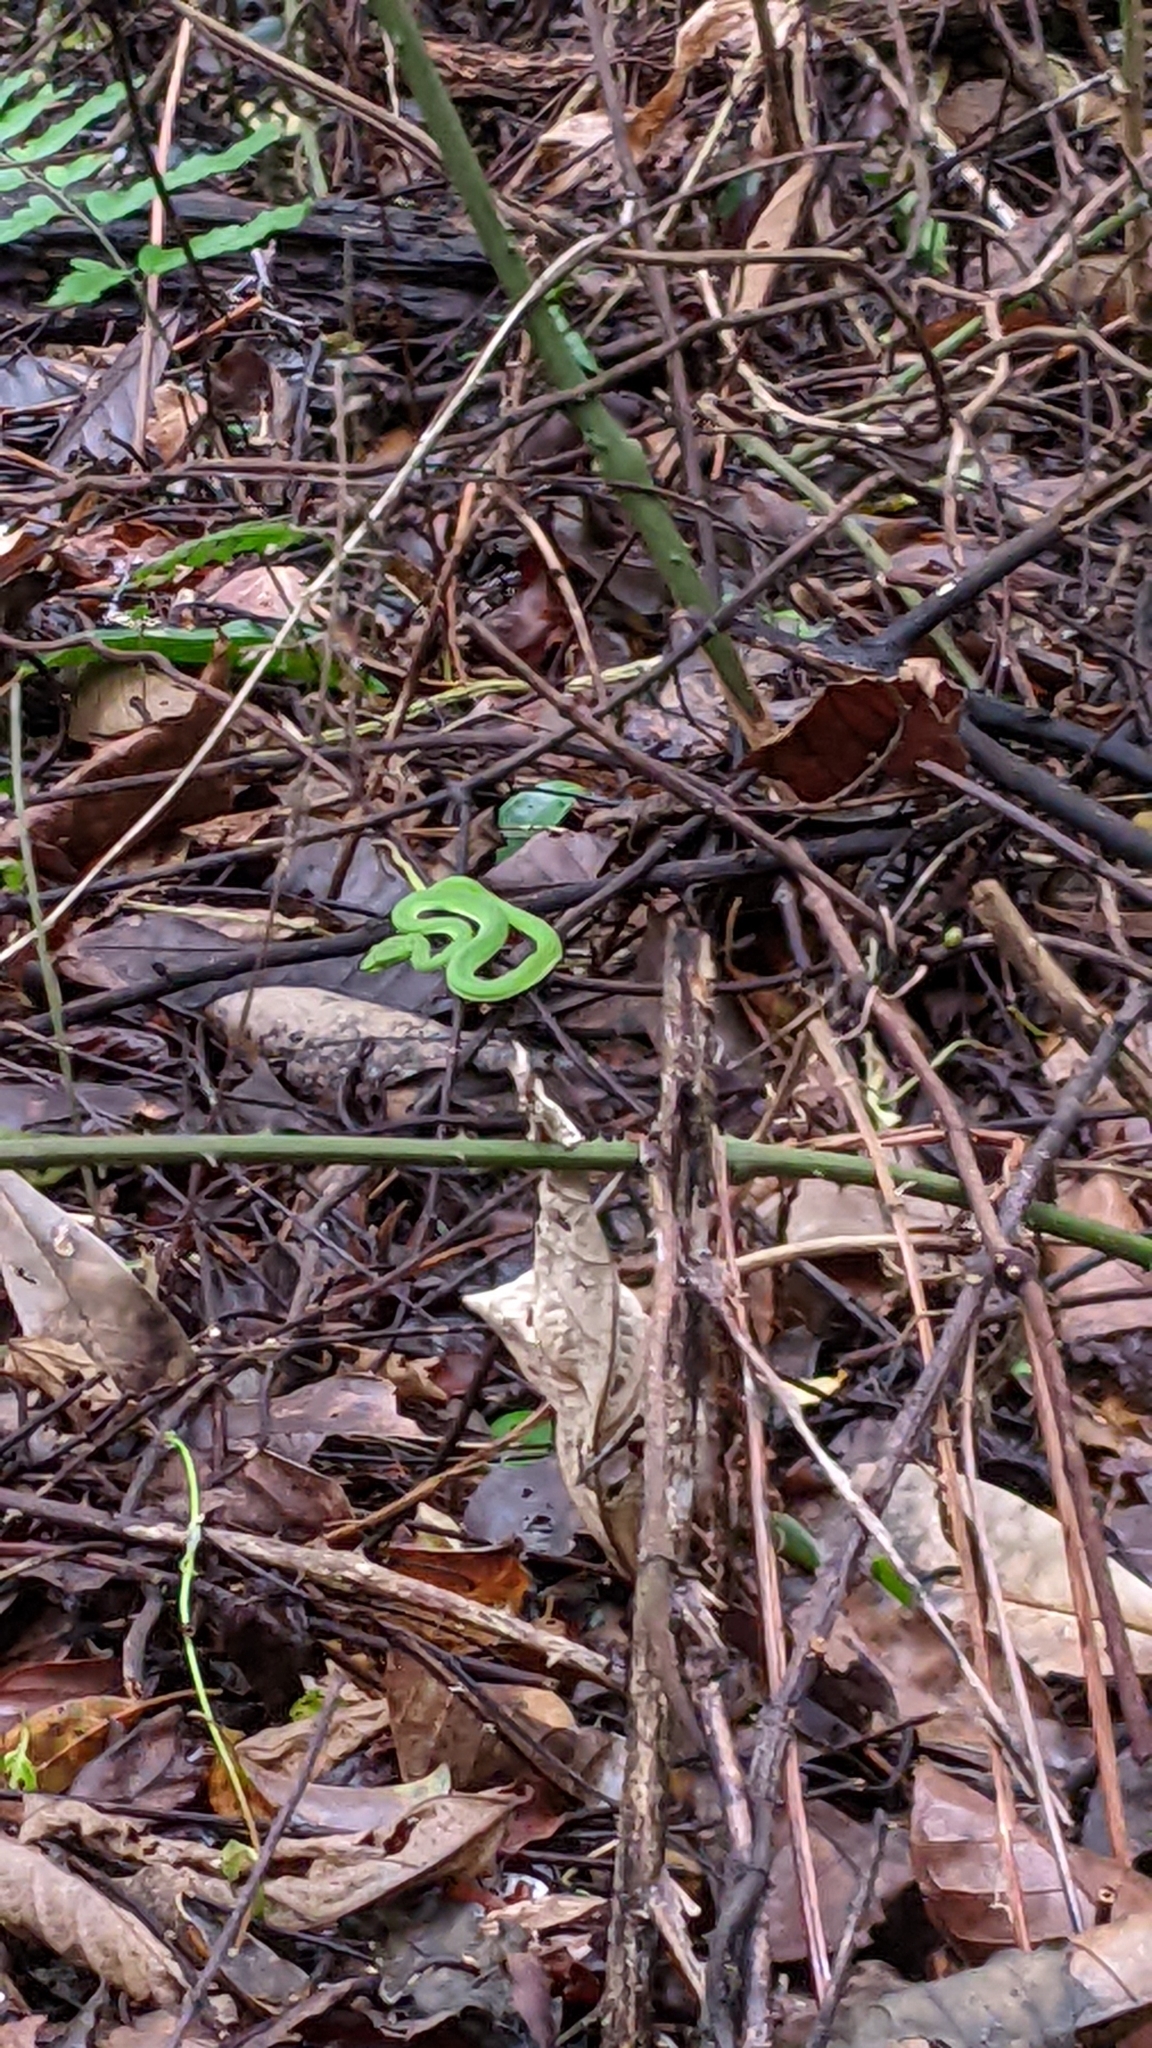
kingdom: Animalia
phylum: Chordata
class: Squamata
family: Viperidae
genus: Trimeresurus
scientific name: Trimeresurus stejnegeri
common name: Chen’s bamboo pit viper
